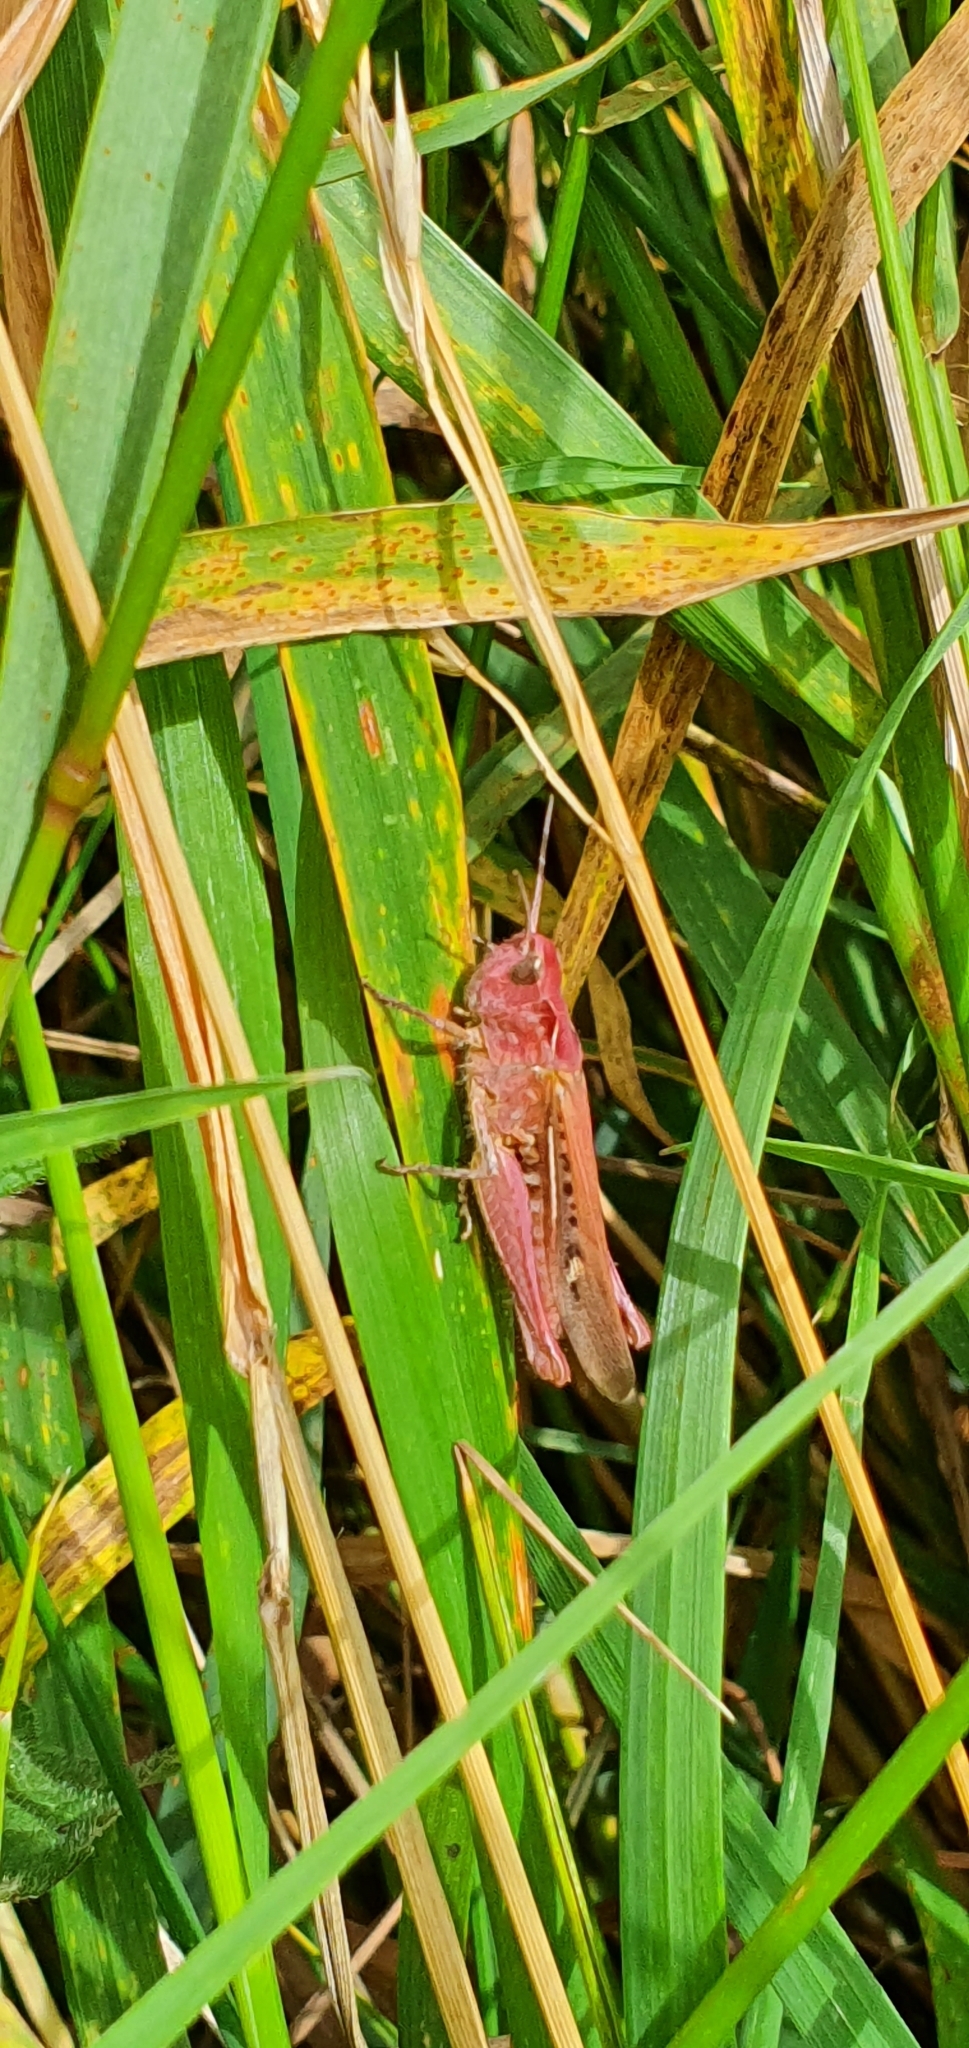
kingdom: Animalia
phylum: Arthropoda
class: Insecta
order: Orthoptera
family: Acrididae
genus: Chorthippus
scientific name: Chorthippus brunneus
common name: Field grasshopper
